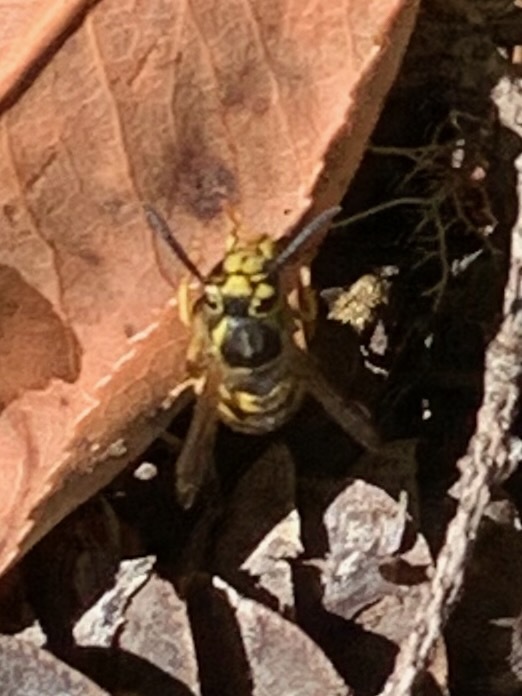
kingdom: Animalia
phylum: Arthropoda
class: Insecta
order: Hymenoptera
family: Vespidae
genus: Vespula
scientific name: Vespula pensylvanica
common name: Western yellowjacket
